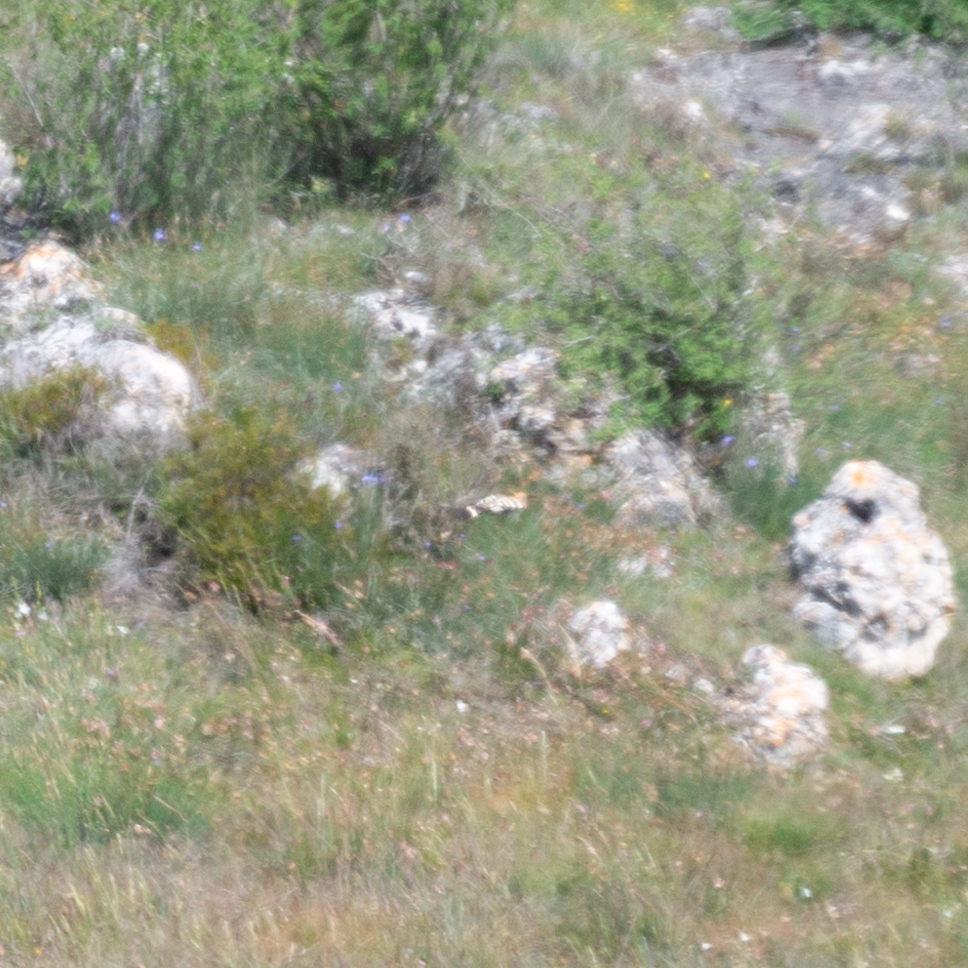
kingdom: Animalia
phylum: Chordata
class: Aves
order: Bucerotiformes
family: Upupidae
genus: Upupa
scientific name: Upupa epops
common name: Eurasian hoopoe
